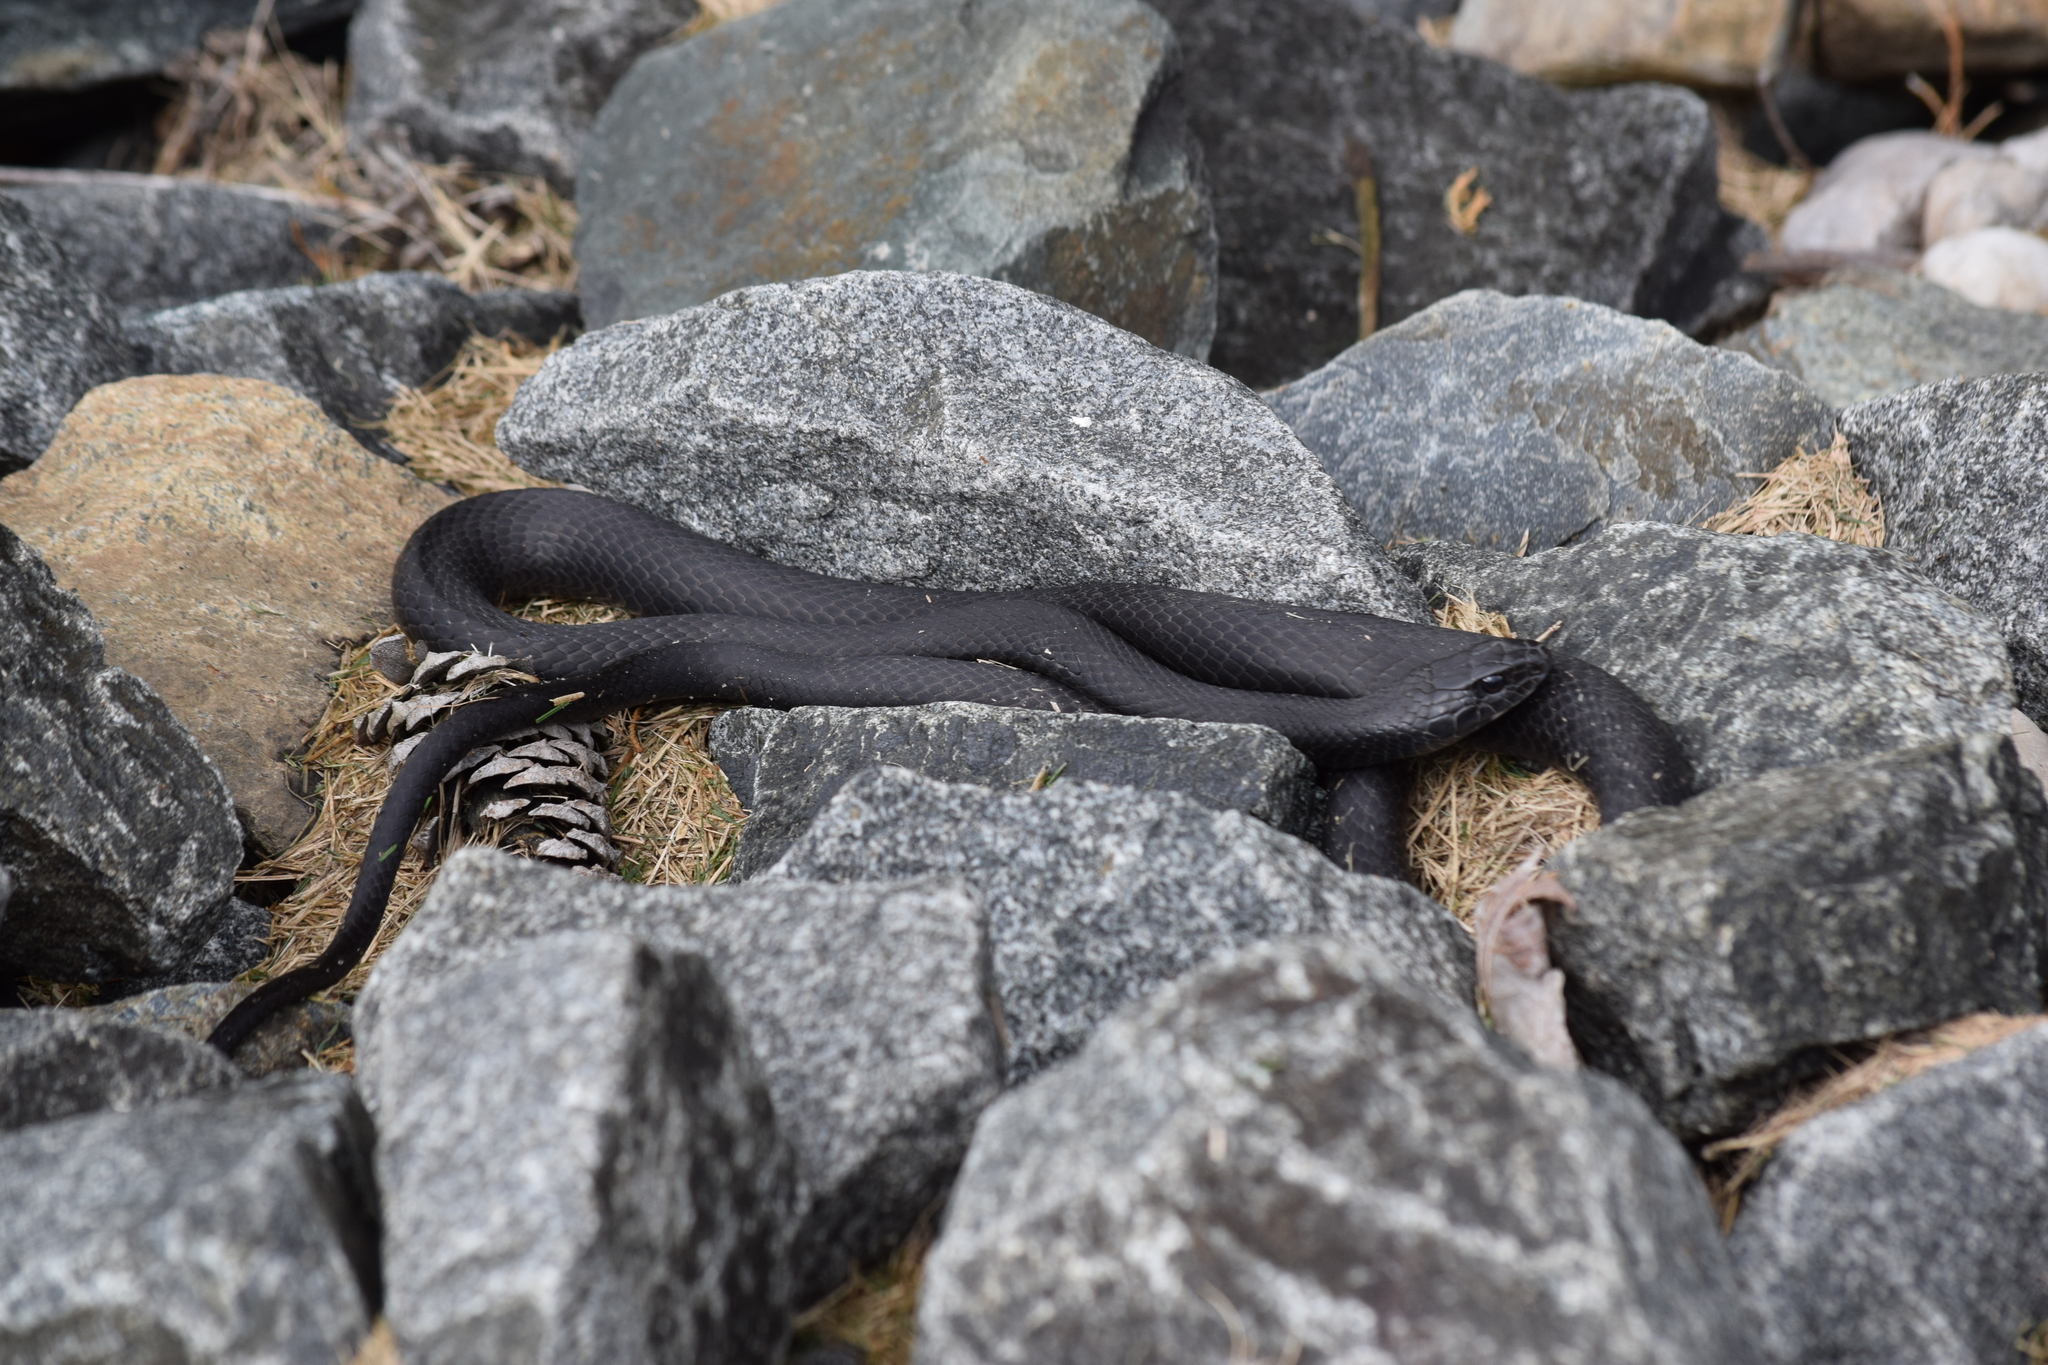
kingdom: Animalia
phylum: Chordata
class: Squamata
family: Colubridae
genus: Coluber
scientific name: Coluber constrictor
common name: Eastern racer
